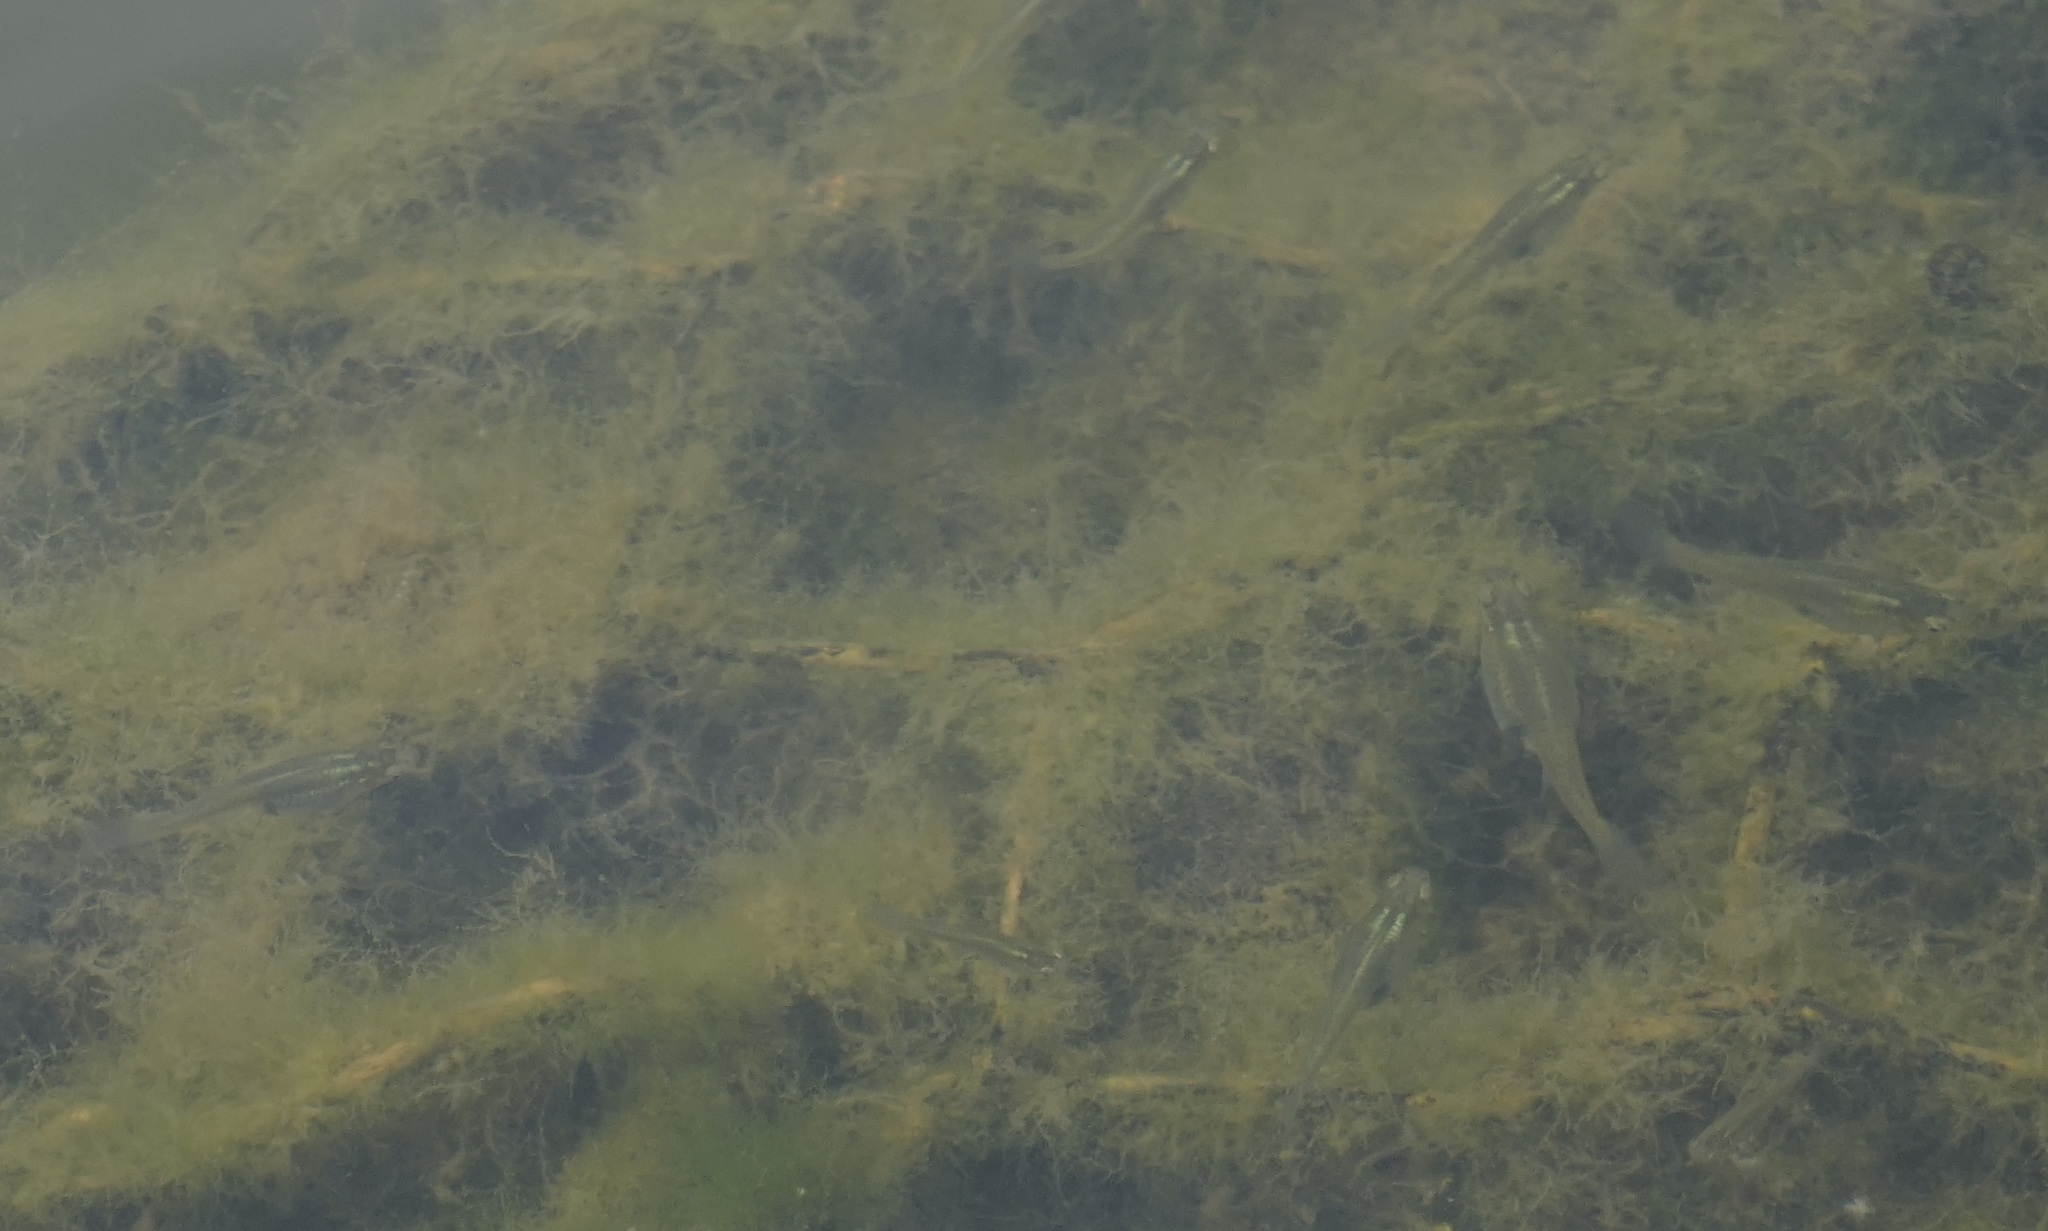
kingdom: Animalia
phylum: Chordata
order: Cyprinodontiformes
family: Poeciliidae
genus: Gambusia
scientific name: Gambusia holbrooki
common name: Eastern mosquitofish
